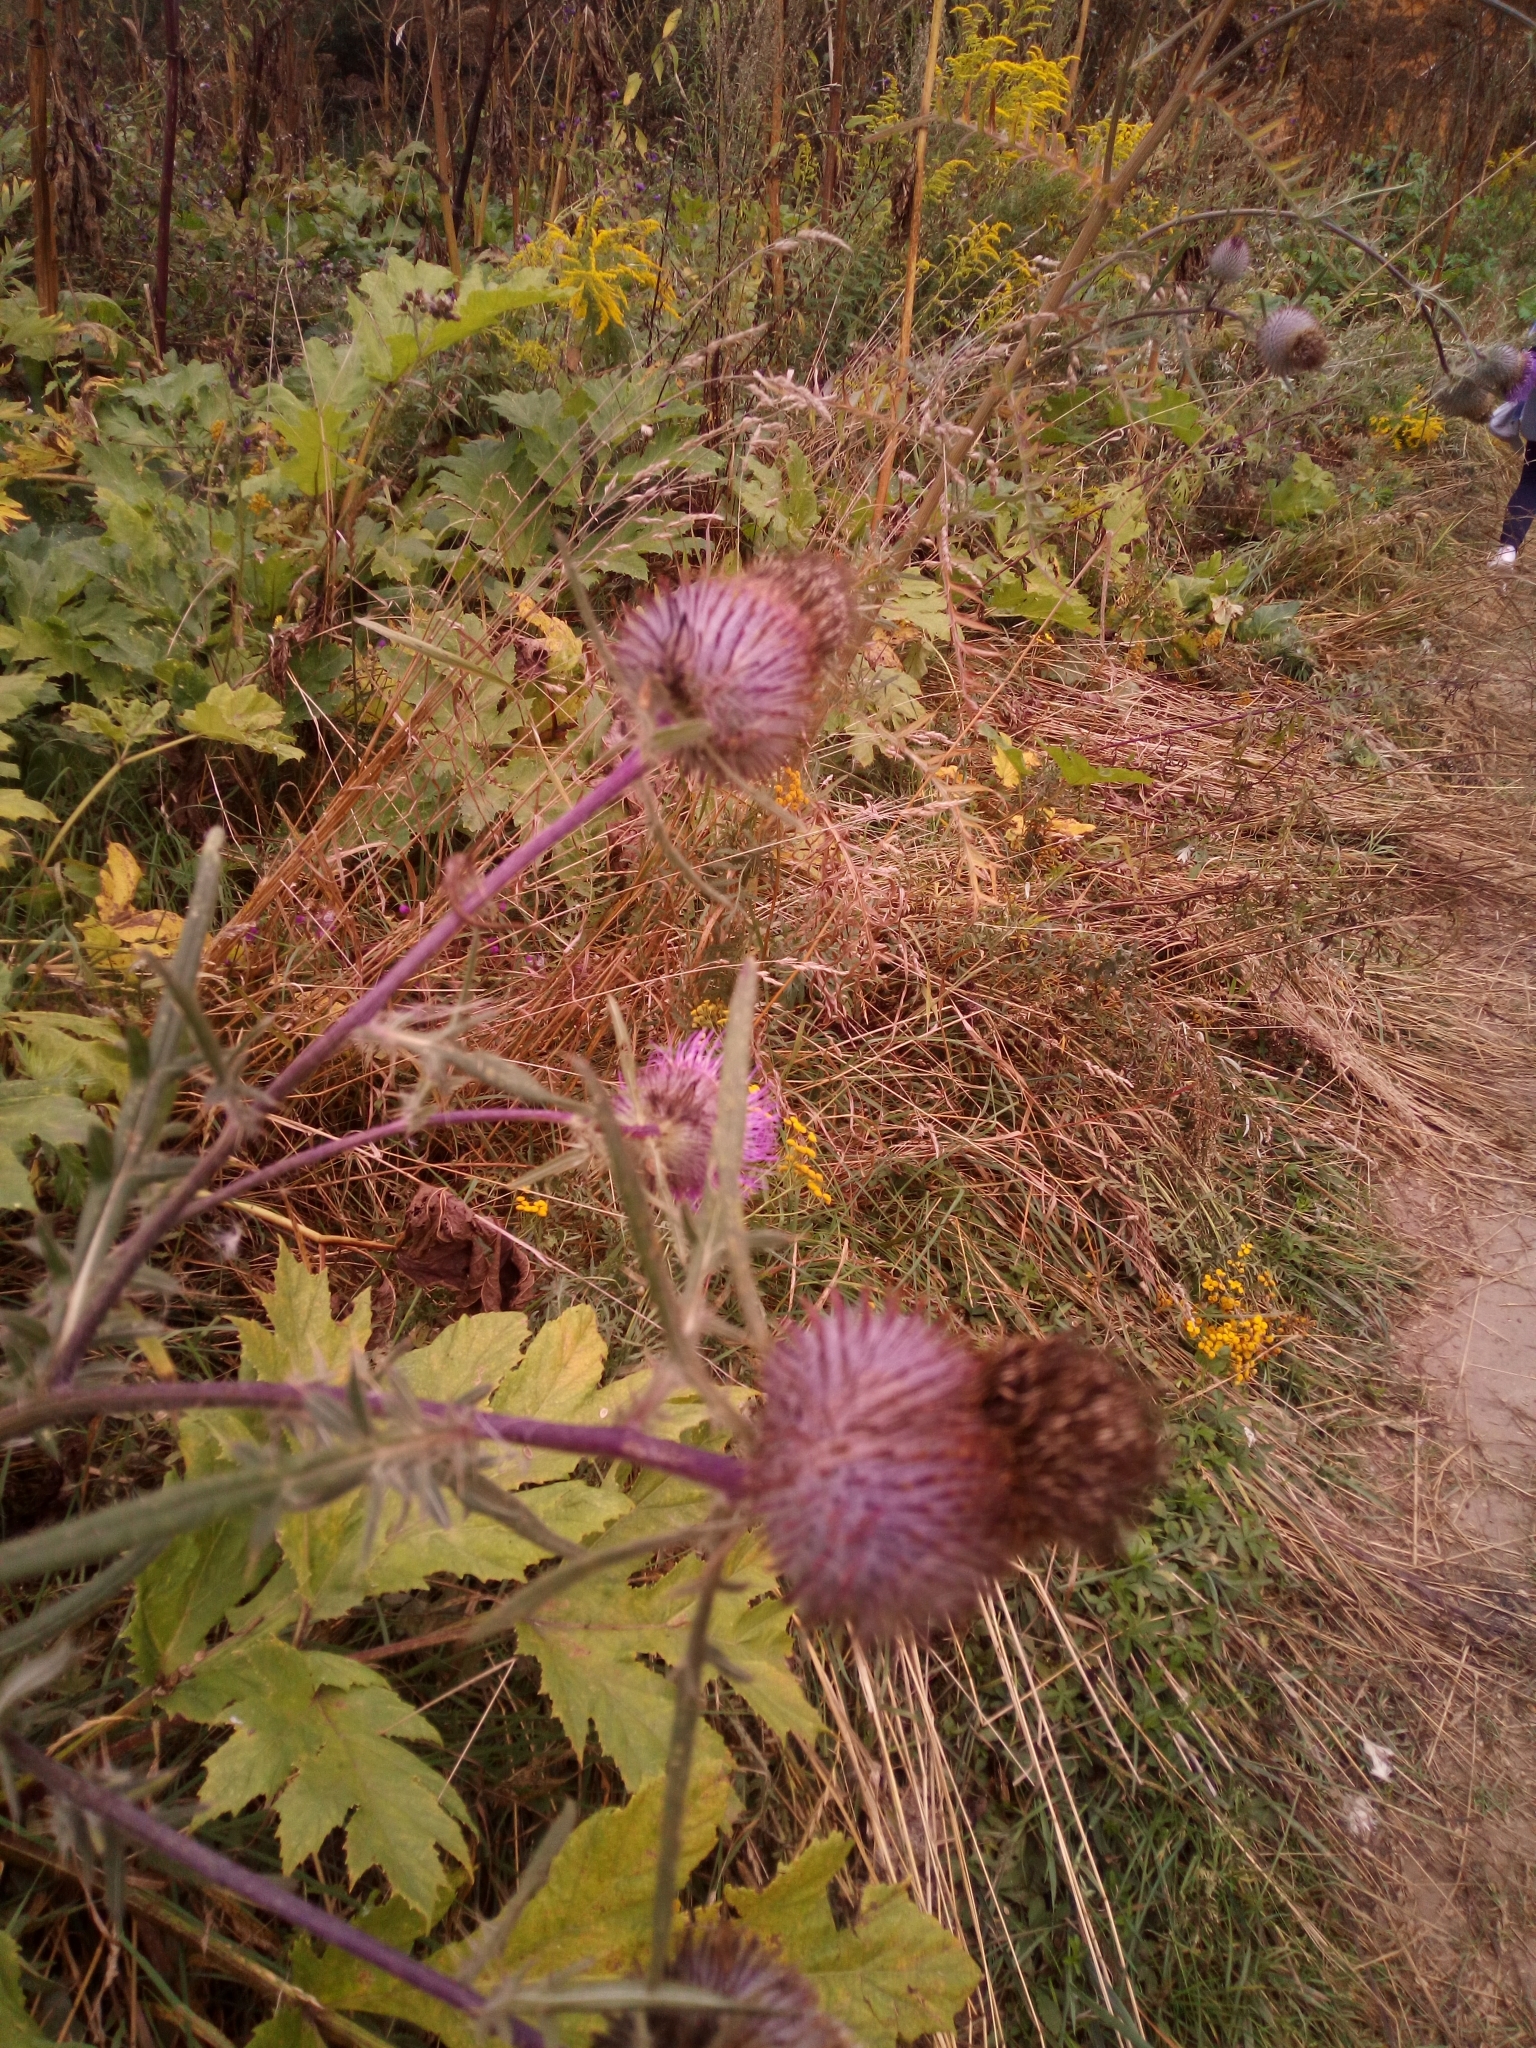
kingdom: Plantae
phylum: Tracheophyta
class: Magnoliopsida
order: Asterales
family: Asteraceae
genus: Lophiolepis
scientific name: Lophiolepis decussata
